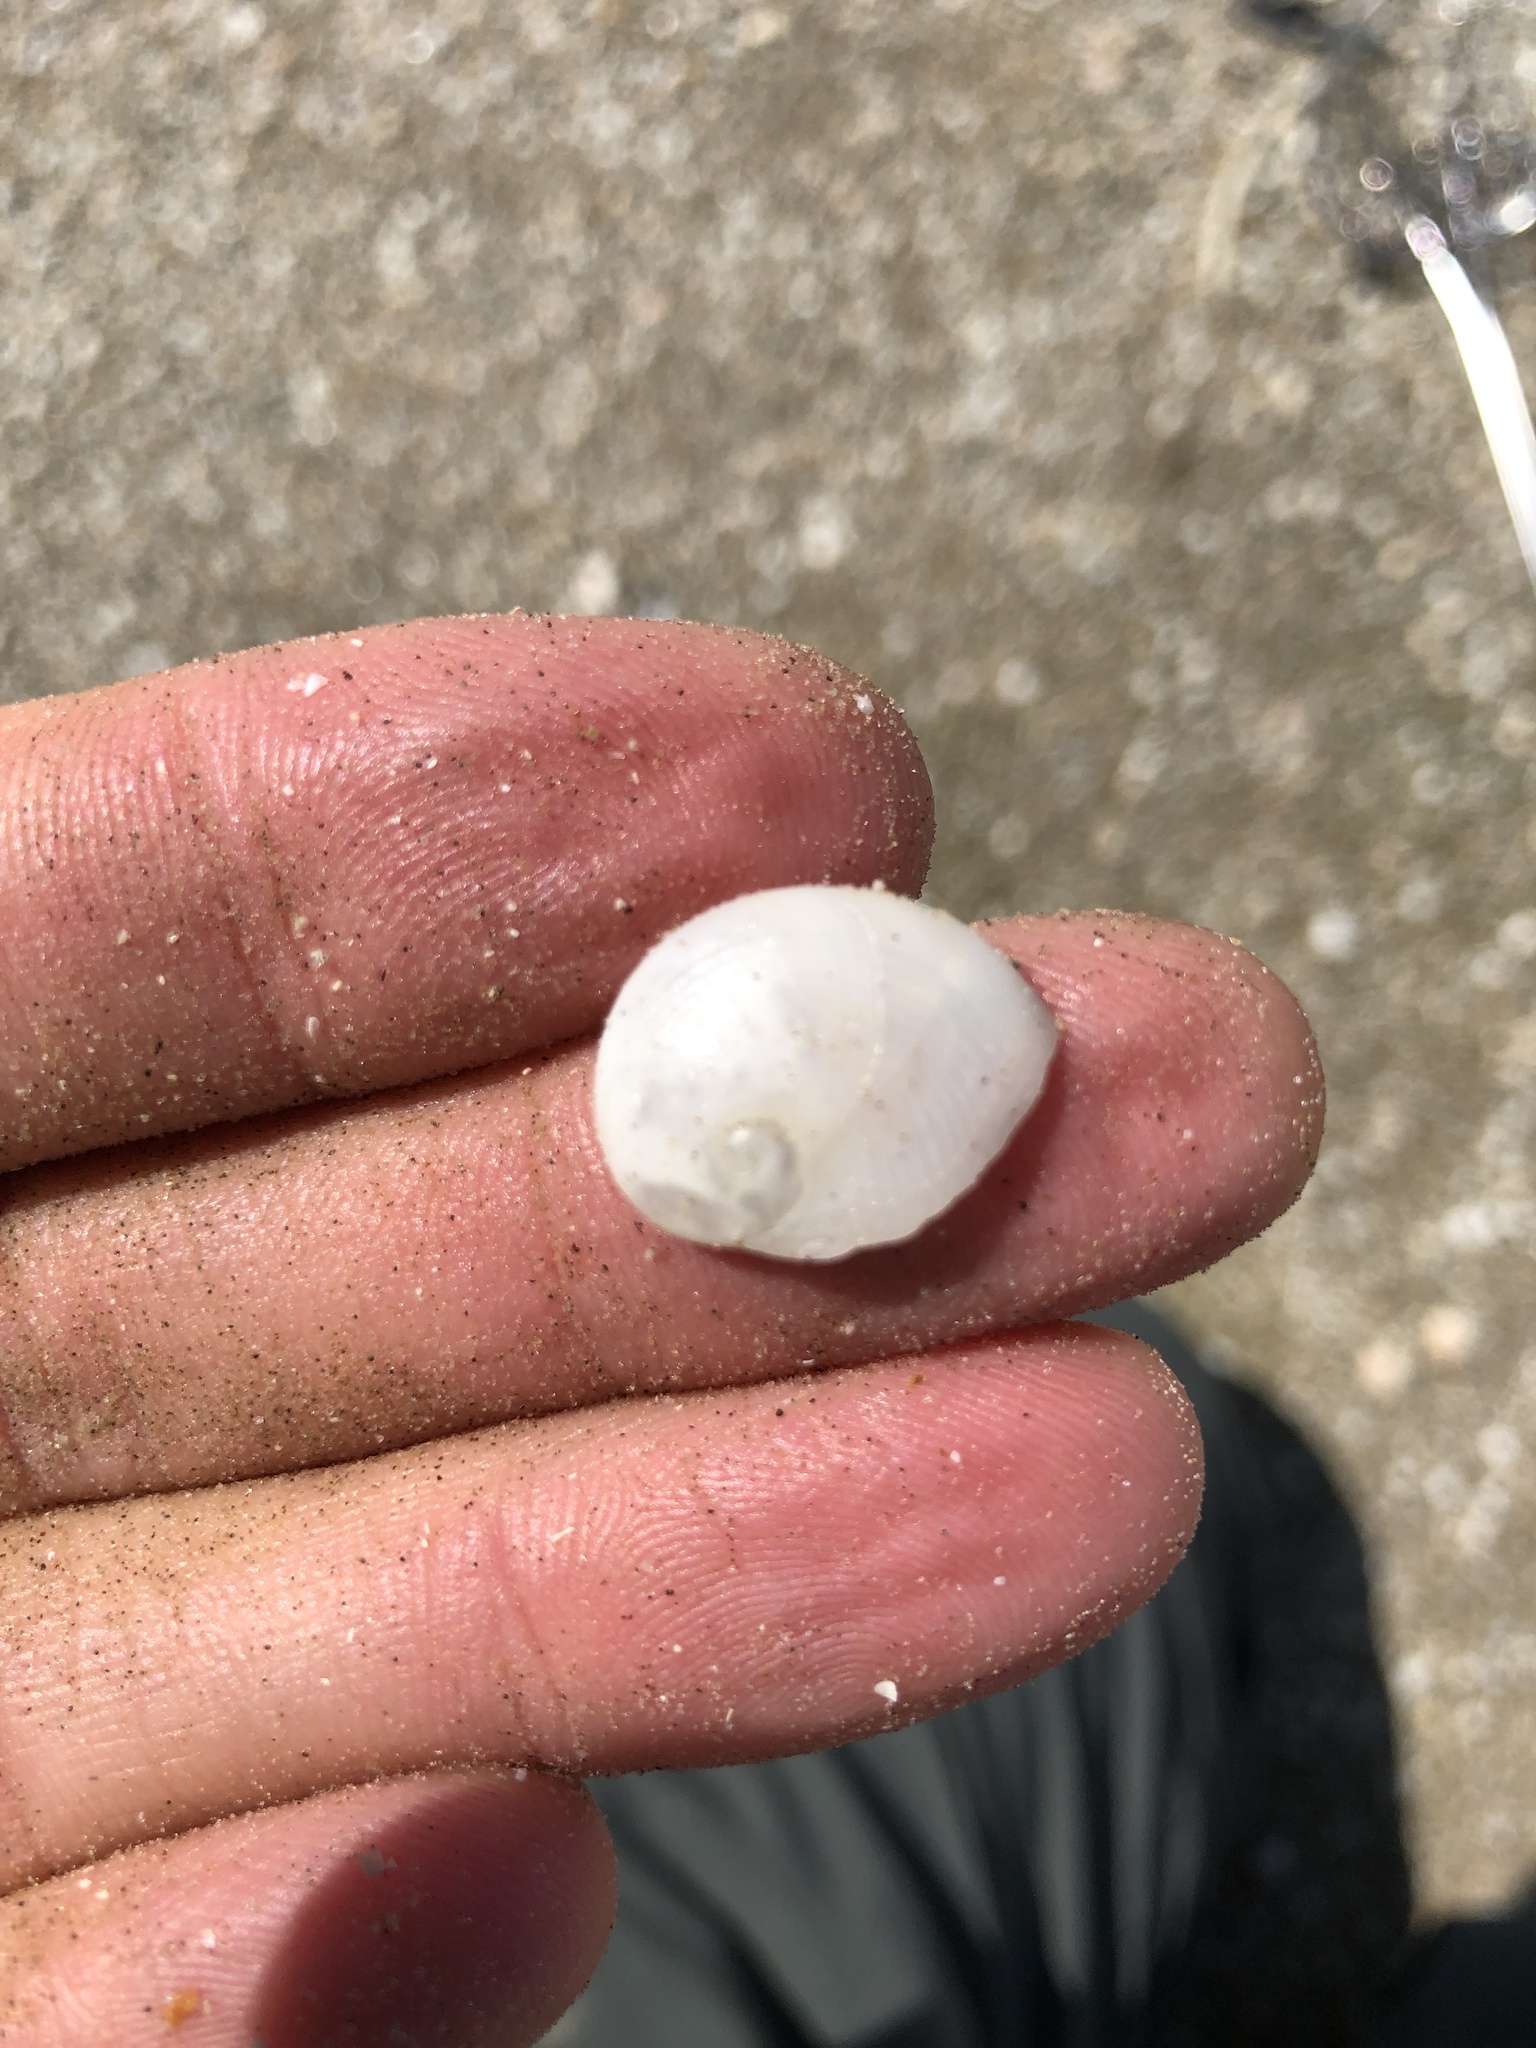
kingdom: Animalia
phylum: Mollusca
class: Gastropoda
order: Littorinimorpha
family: Naticidae
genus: Sinum
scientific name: Sinum perspectivum
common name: White baby ear
